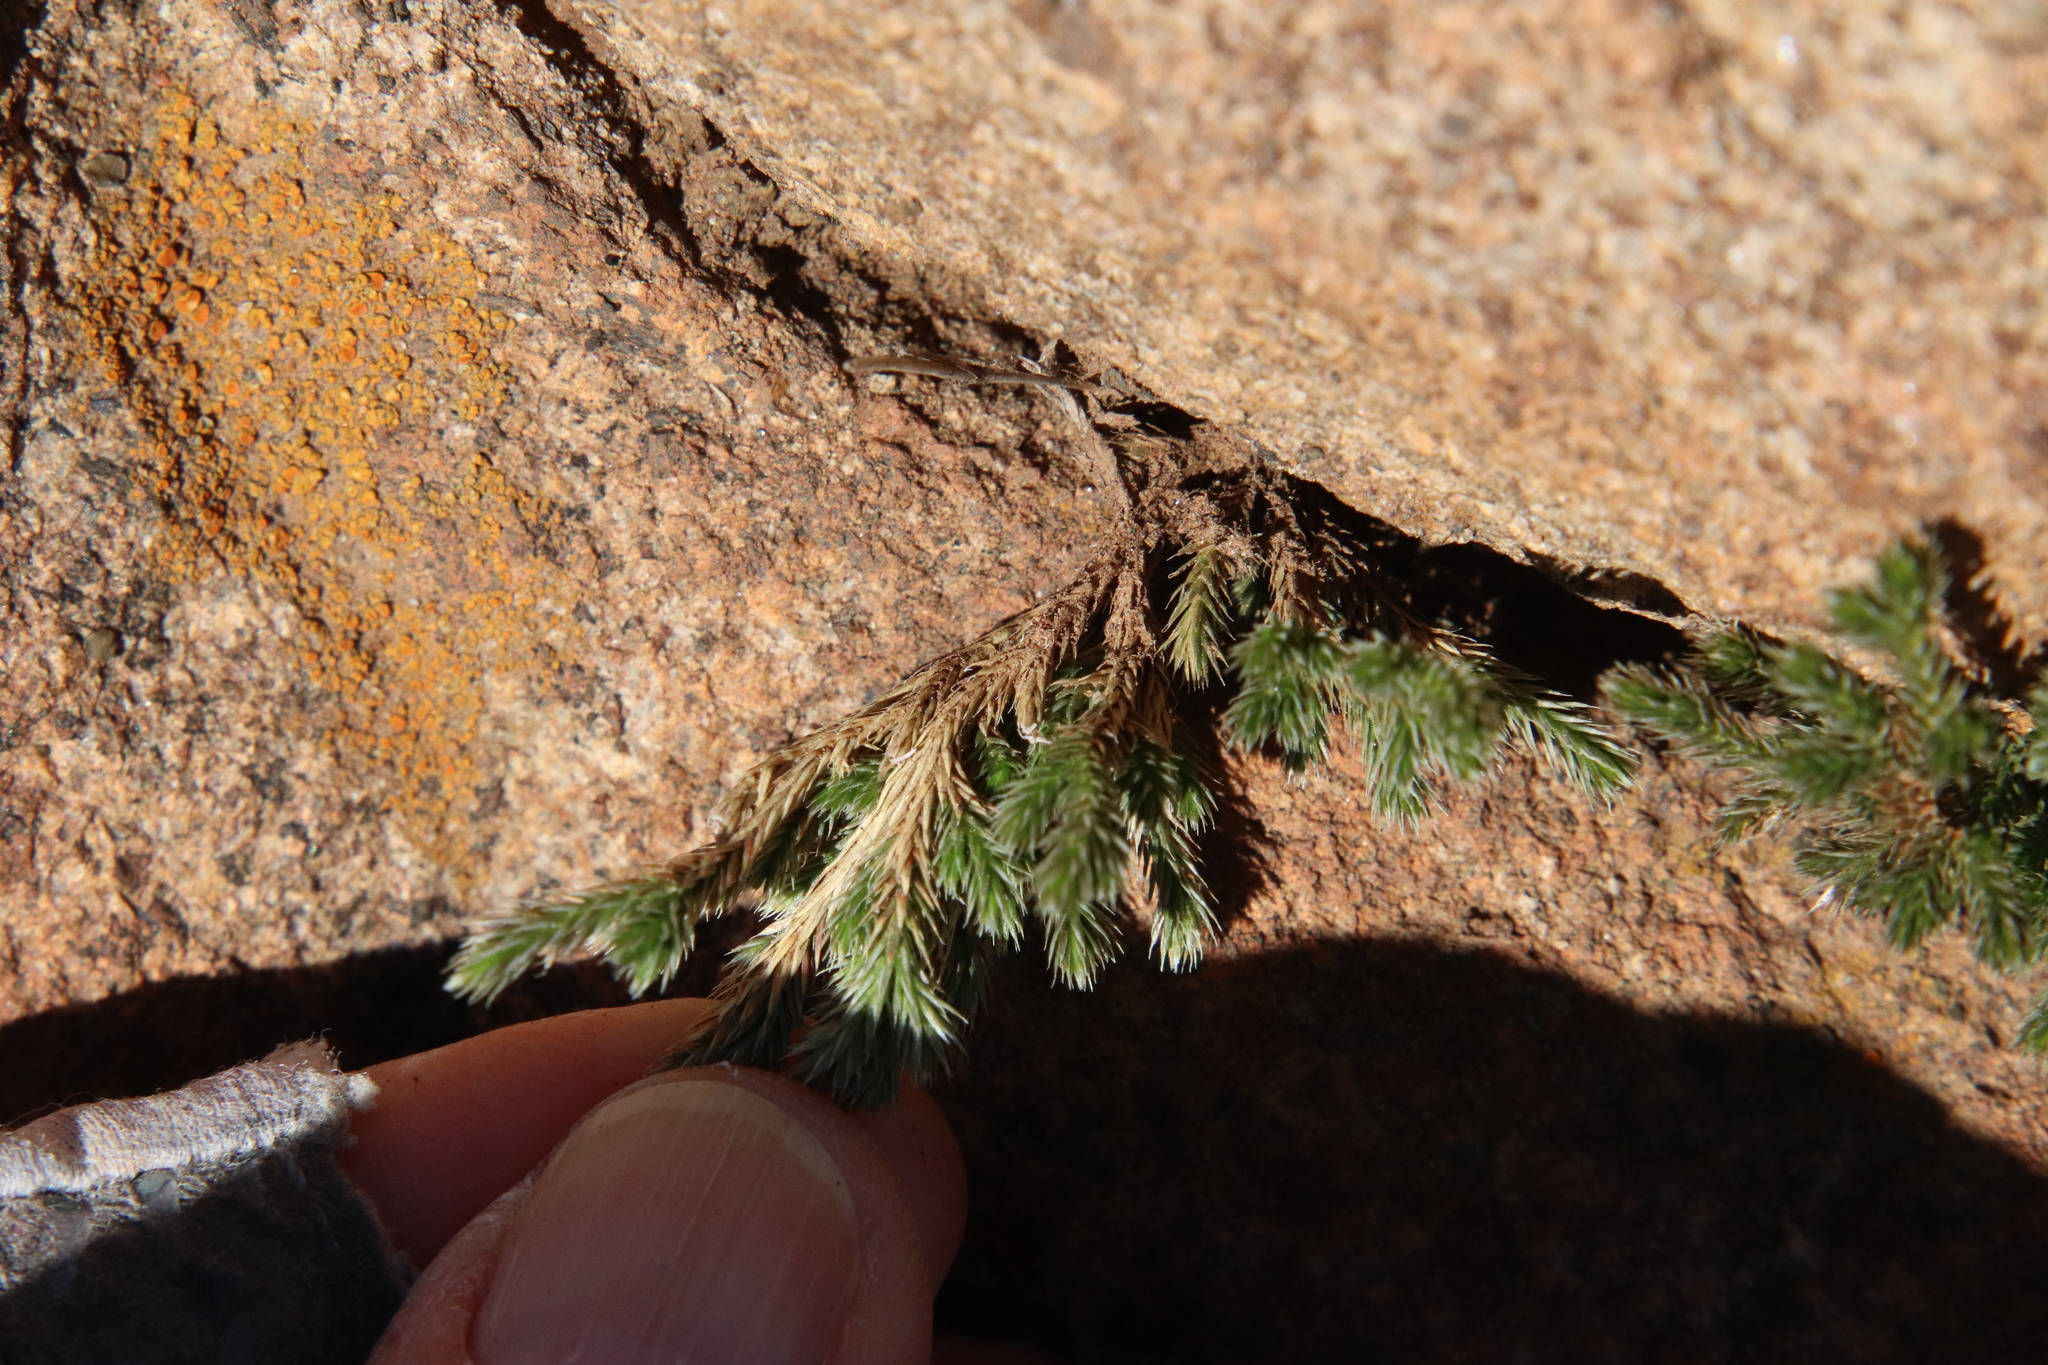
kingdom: Plantae
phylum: Tracheophyta
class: Lycopodiopsida
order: Selaginellales
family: Selaginellaceae
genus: Selaginella
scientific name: Selaginella bigelovii
